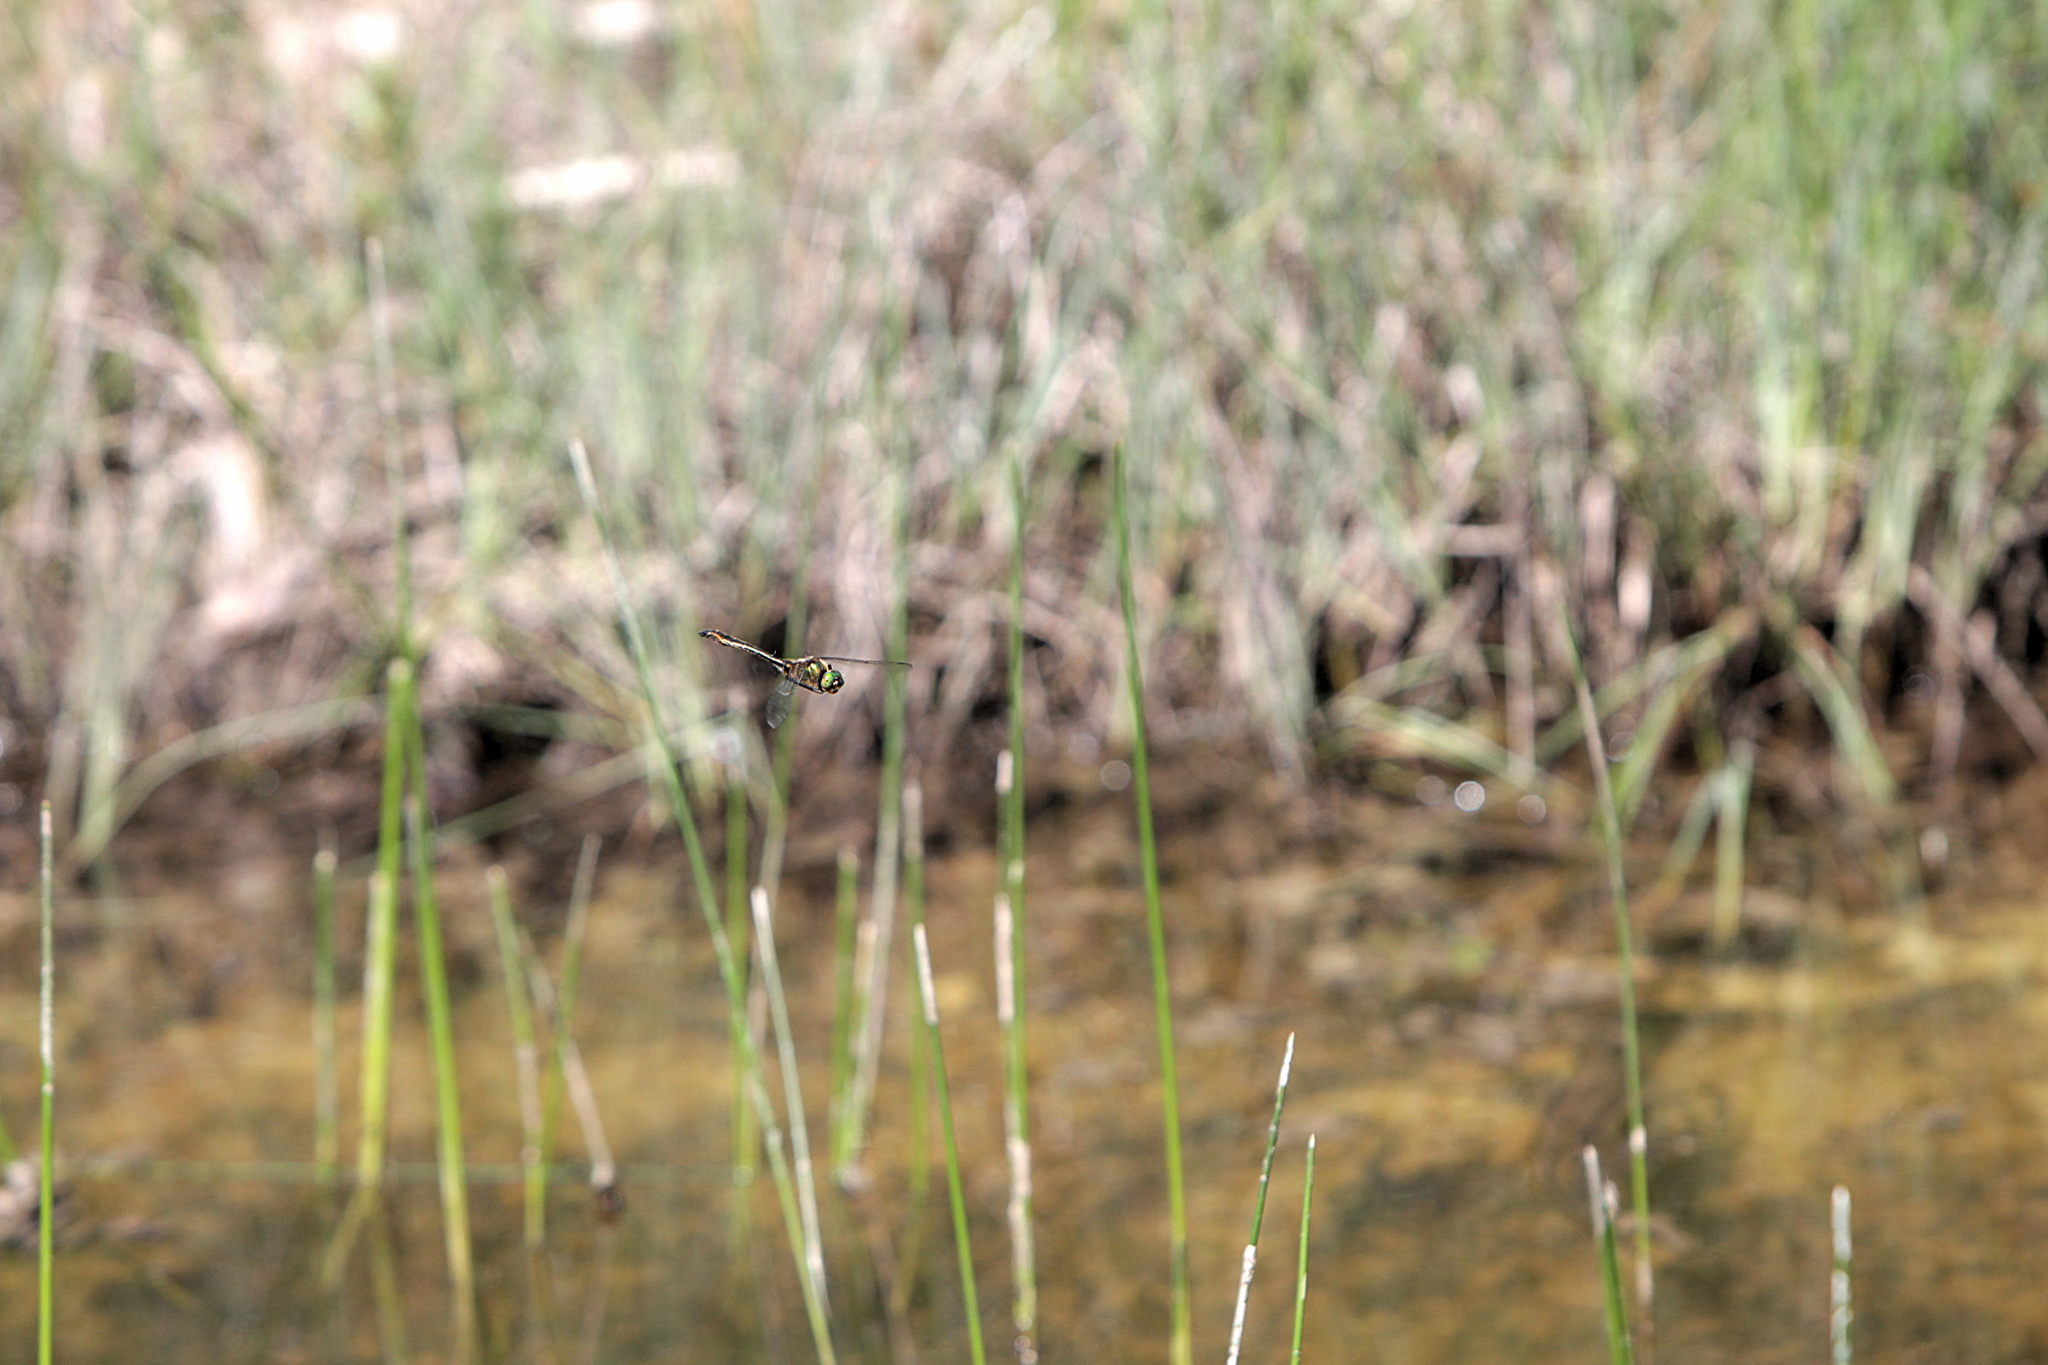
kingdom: Animalia
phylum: Arthropoda
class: Insecta
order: Odonata
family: Corduliidae
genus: Cordulia
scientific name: Cordulia aenea
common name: Downy emerald
